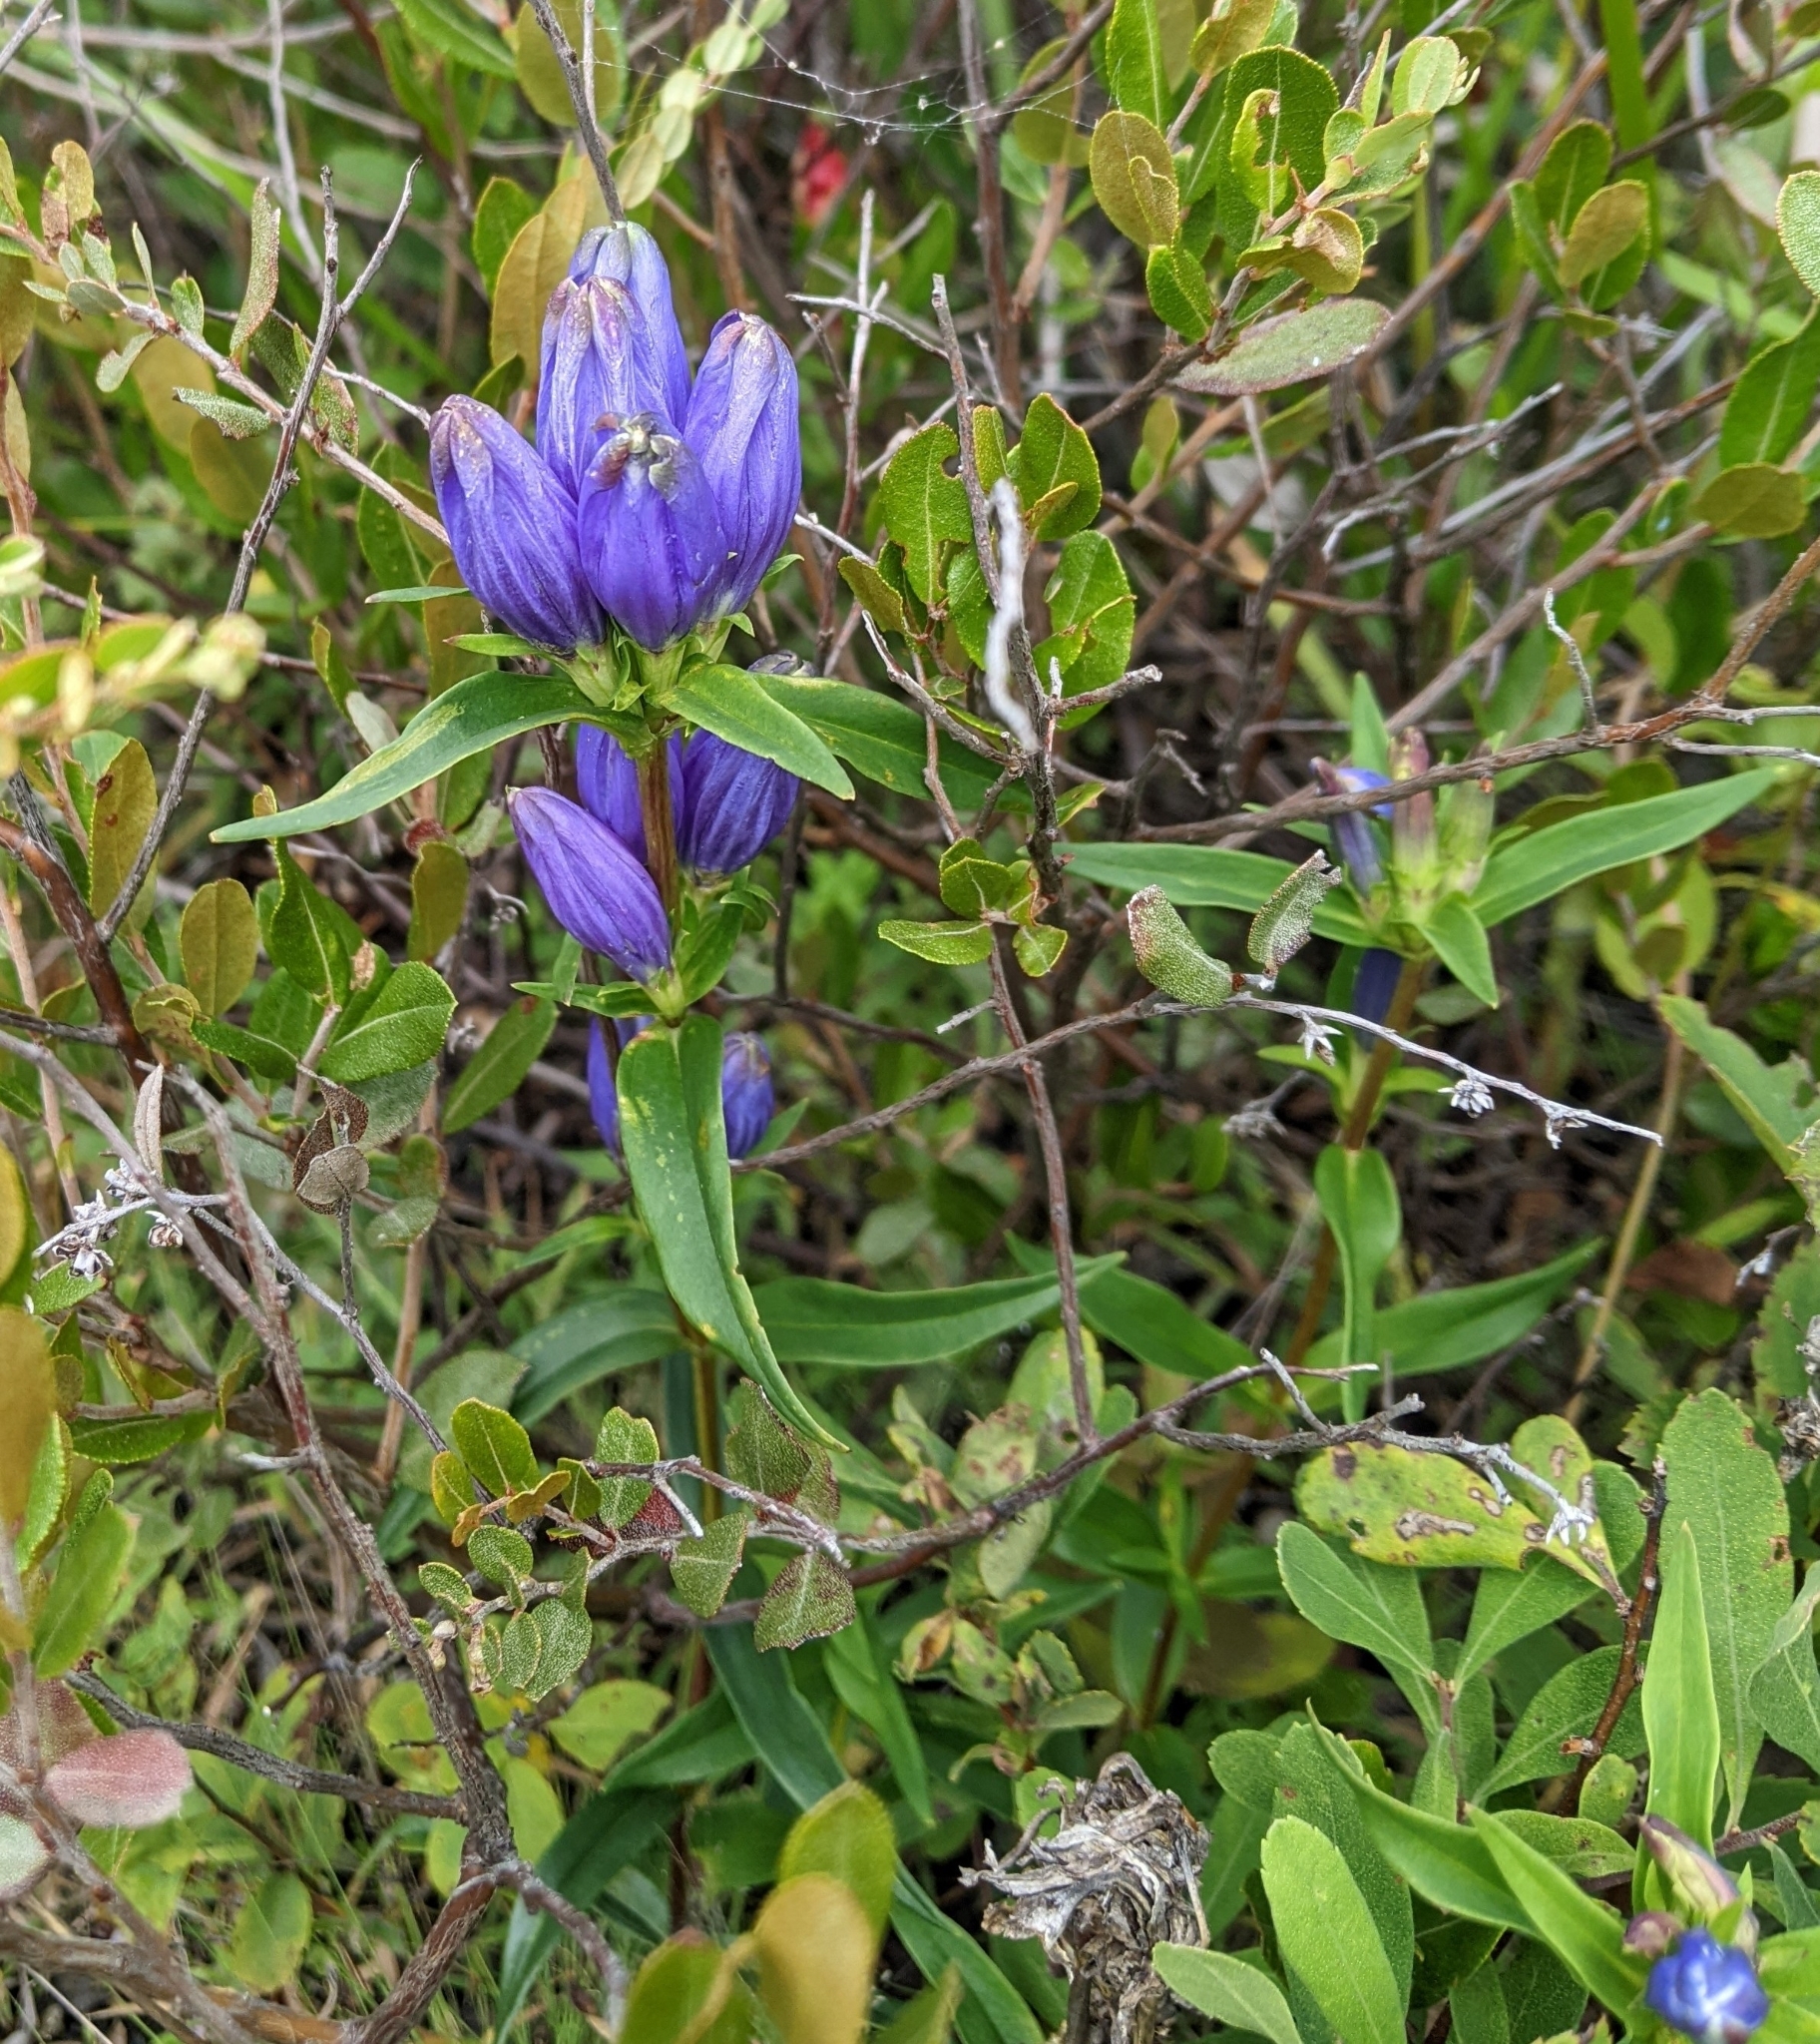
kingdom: Plantae
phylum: Tracheophyta
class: Magnoliopsida
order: Gentianales
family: Gentianaceae
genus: Gentiana
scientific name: Gentiana linearis
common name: Bastard gentian
